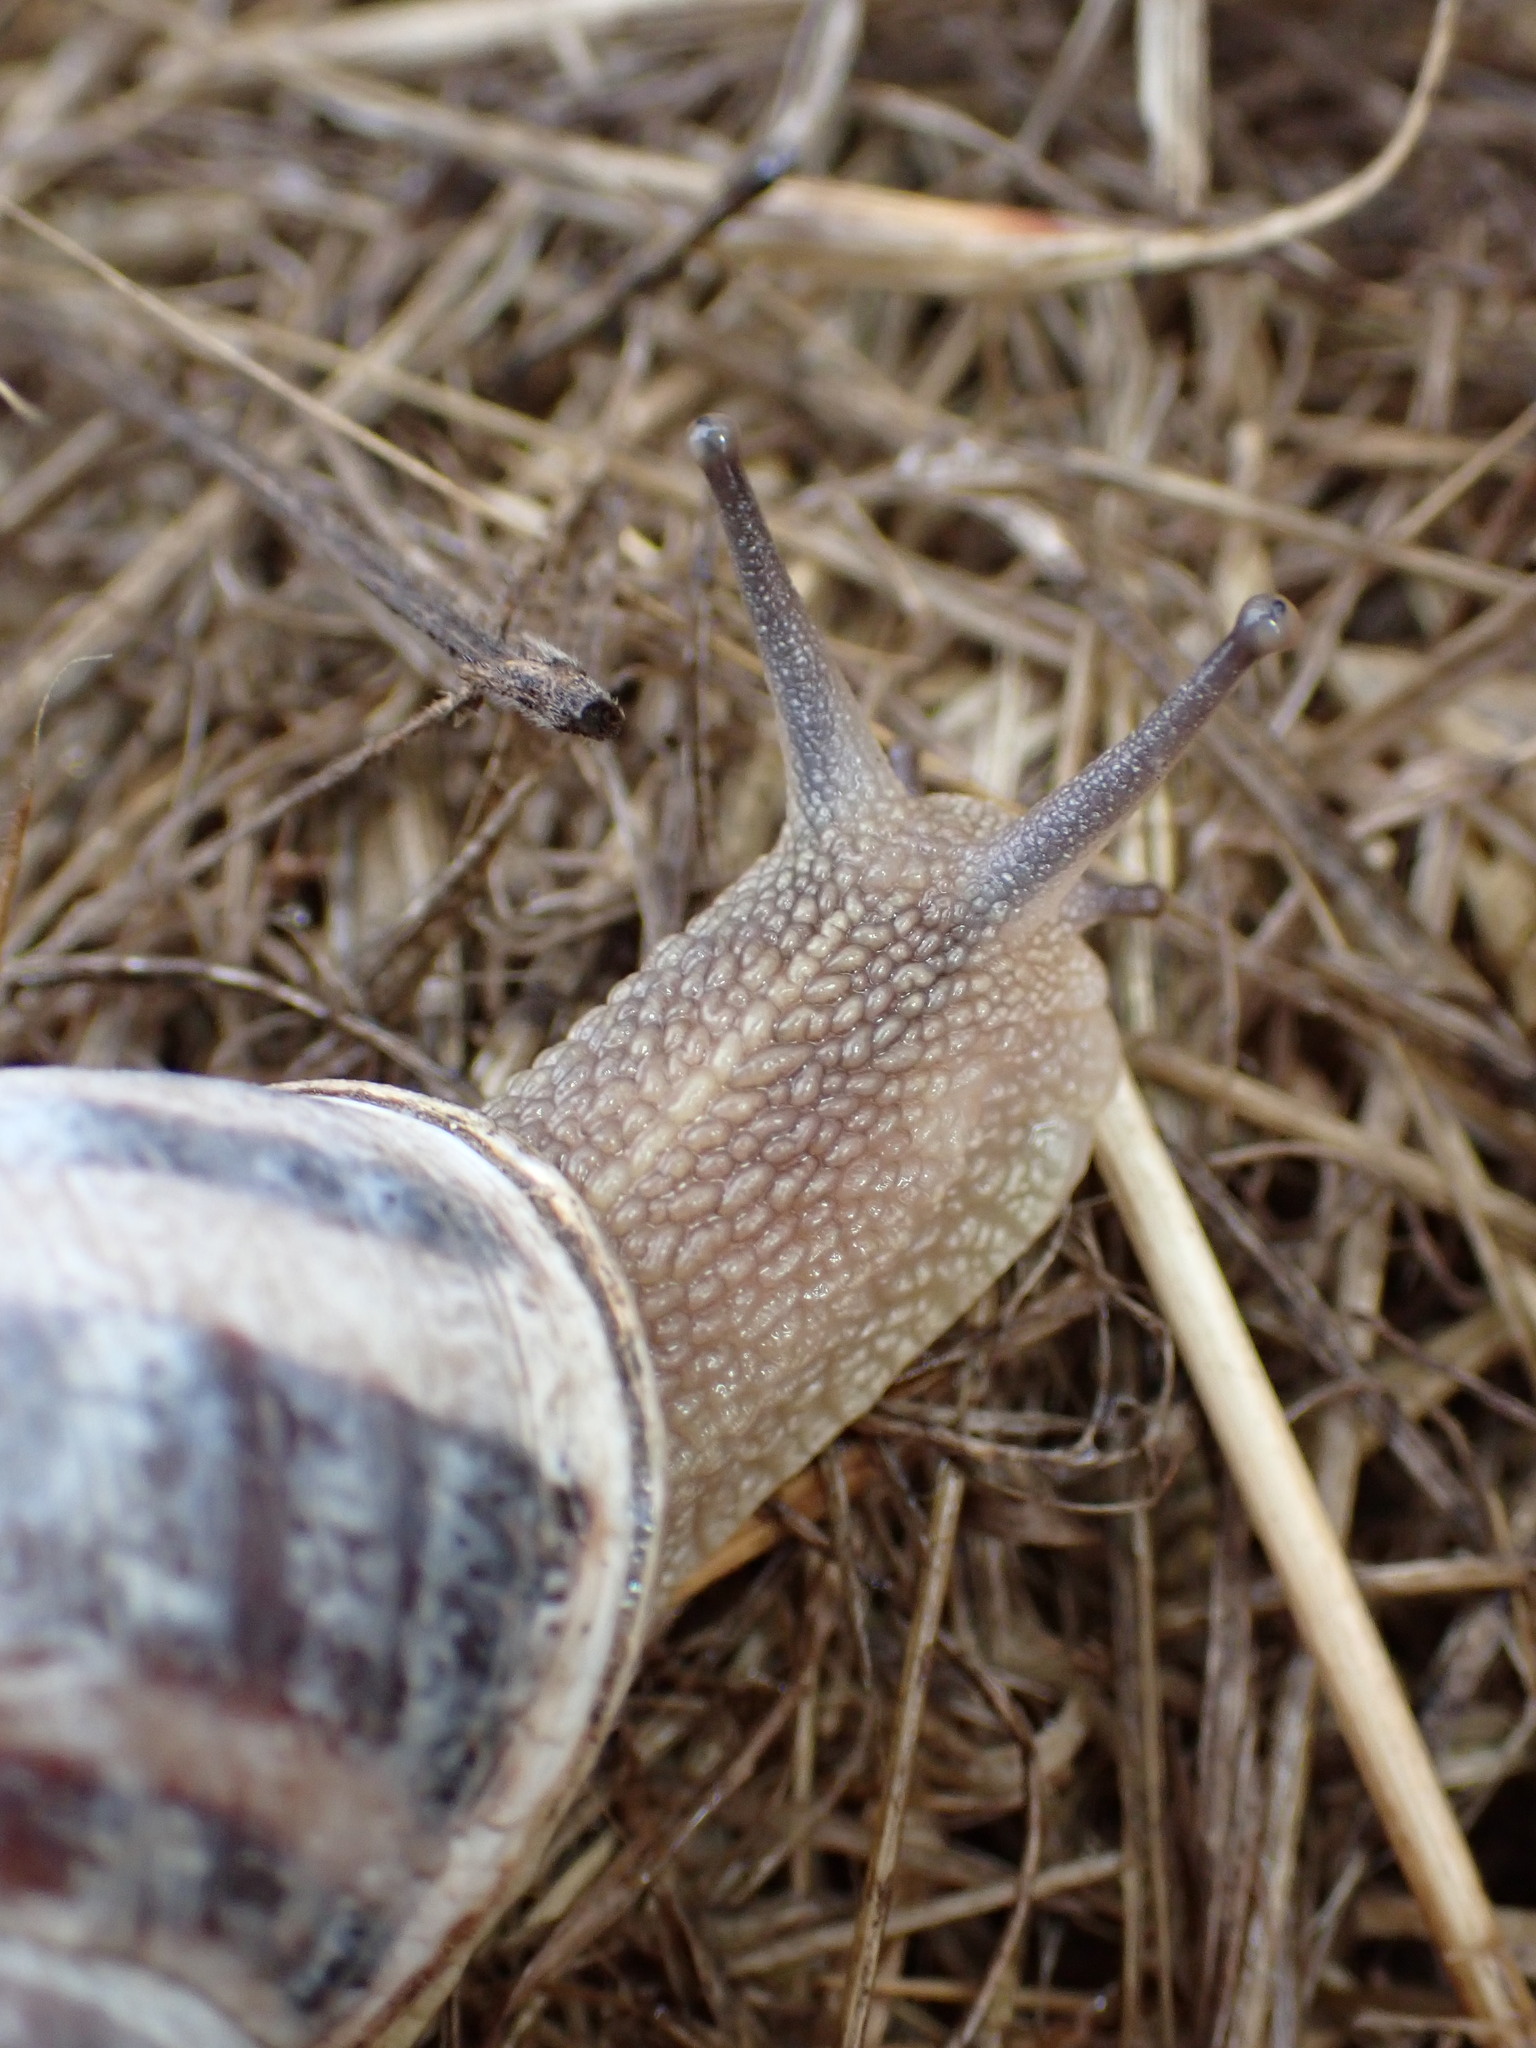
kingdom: Animalia
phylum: Mollusca
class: Gastropoda
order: Stylommatophora
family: Helicidae
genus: Cornu
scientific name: Cornu aspersum
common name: Brown garden snail
